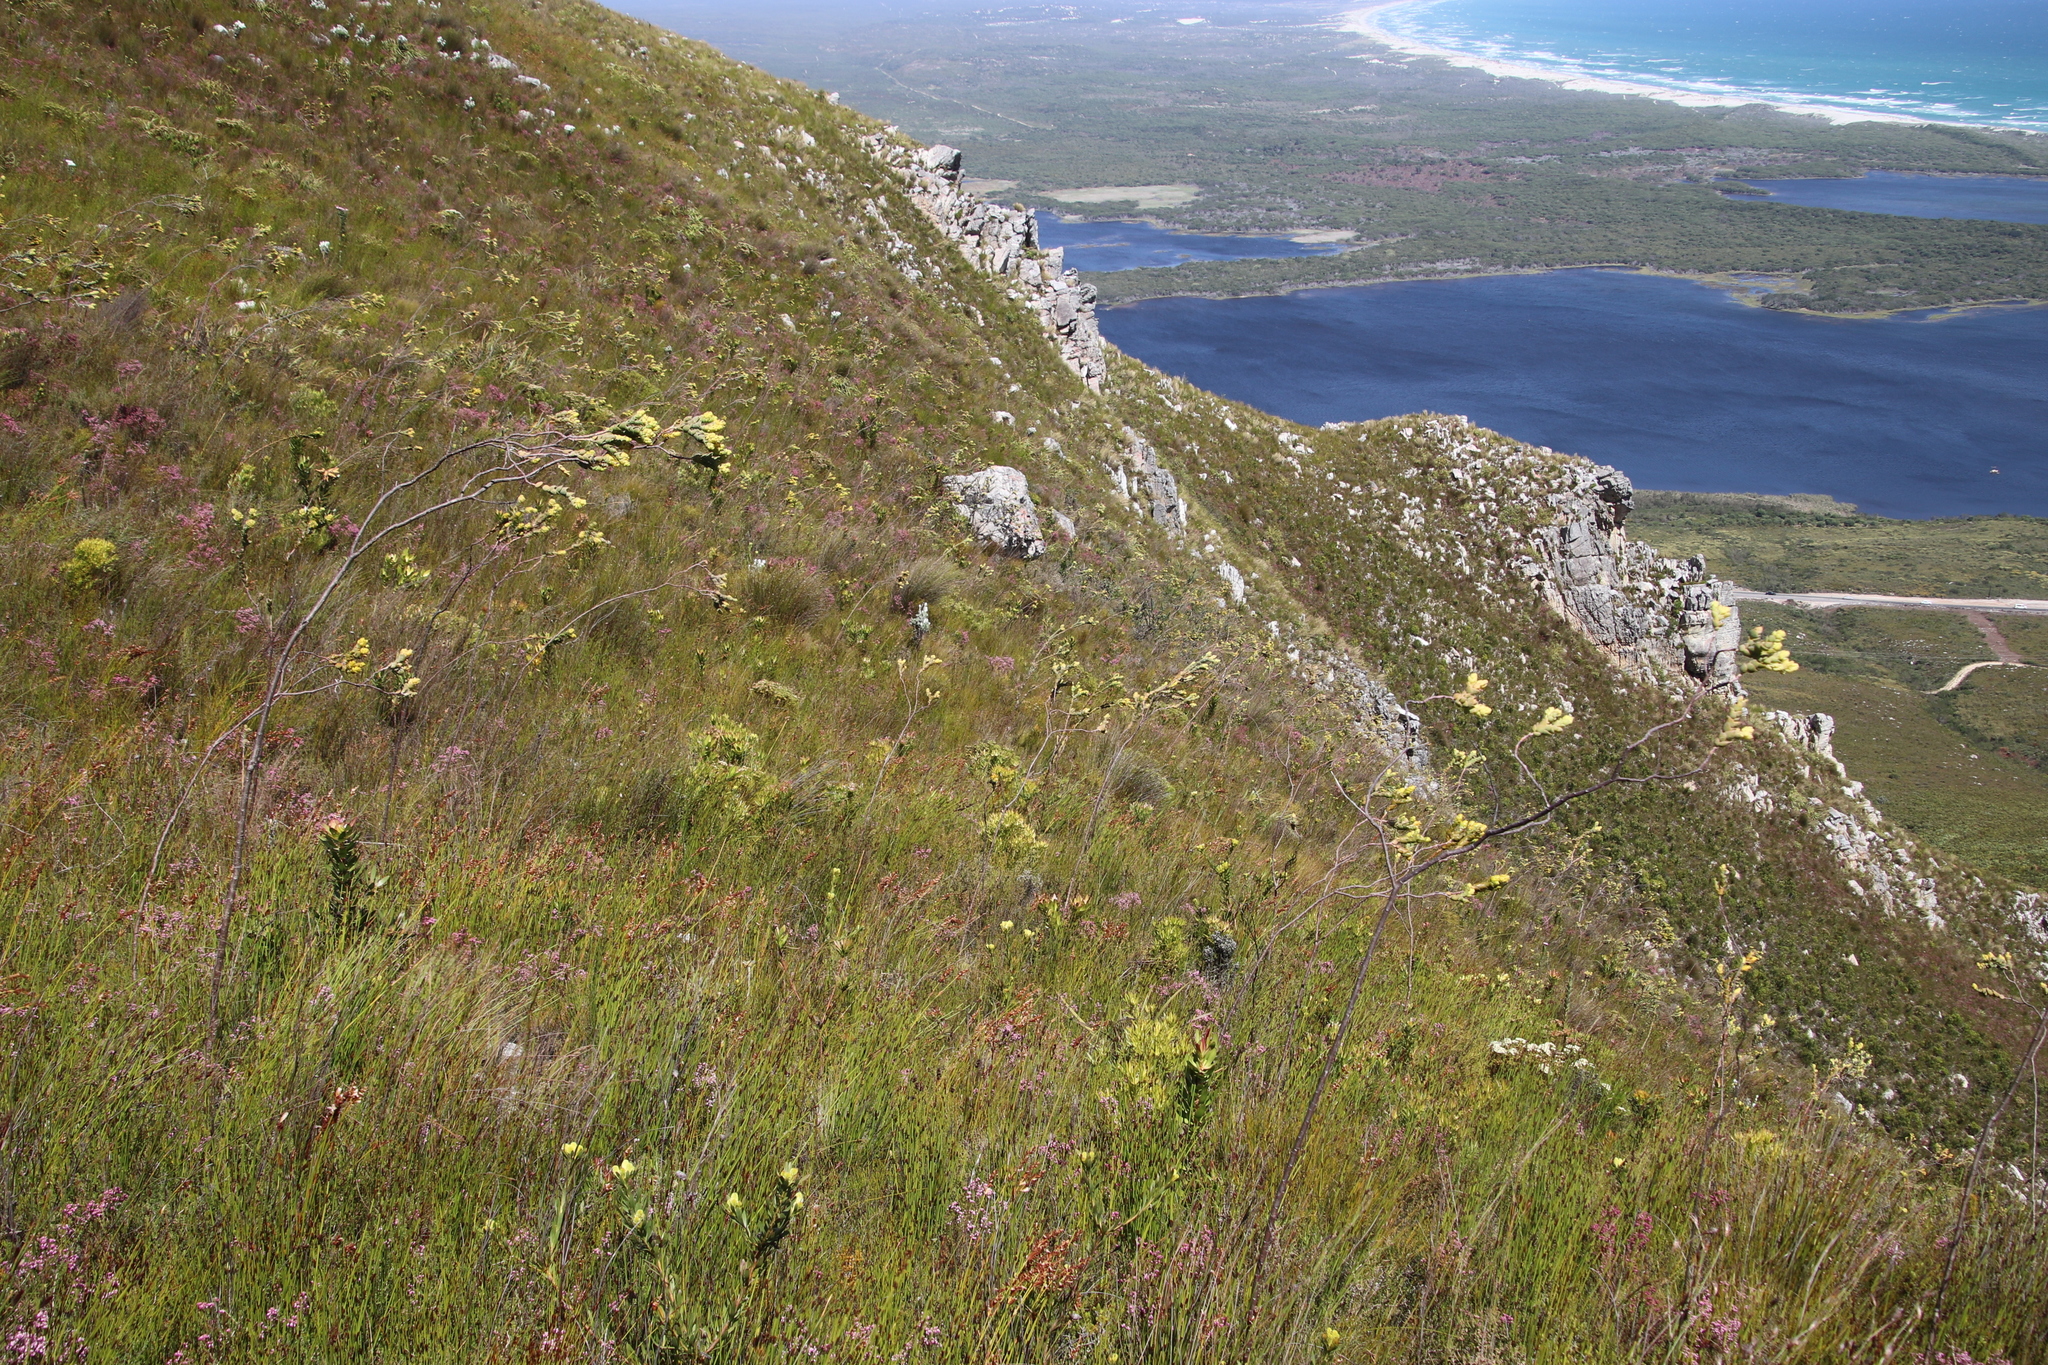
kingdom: Plantae
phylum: Tracheophyta
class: Magnoliopsida
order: Santalales
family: Thesiaceae
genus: Thesium
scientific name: Thesium euphorbioides
